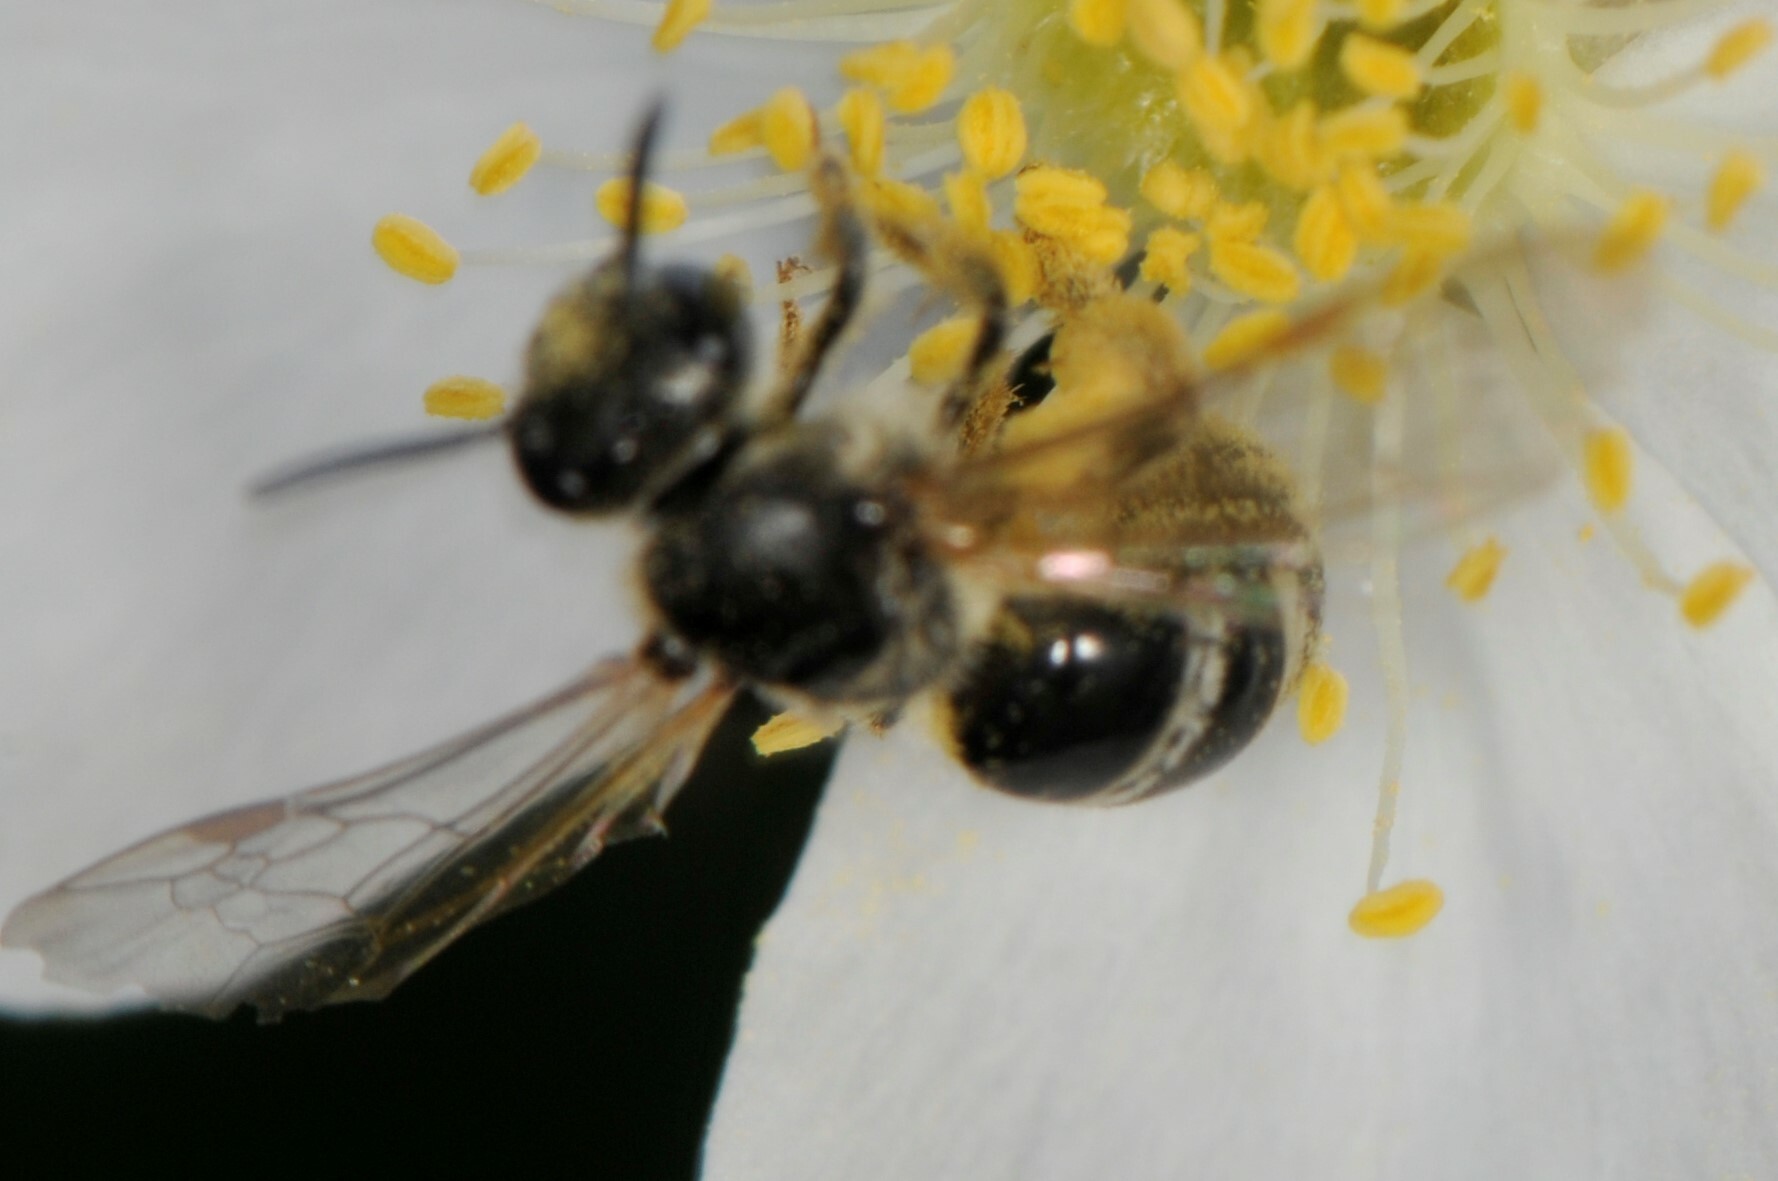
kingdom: Animalia
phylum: Arthropoda
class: Insecta
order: Hymenoptera
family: Halictidae
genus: Lasioglossum
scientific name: Lasioglossum
